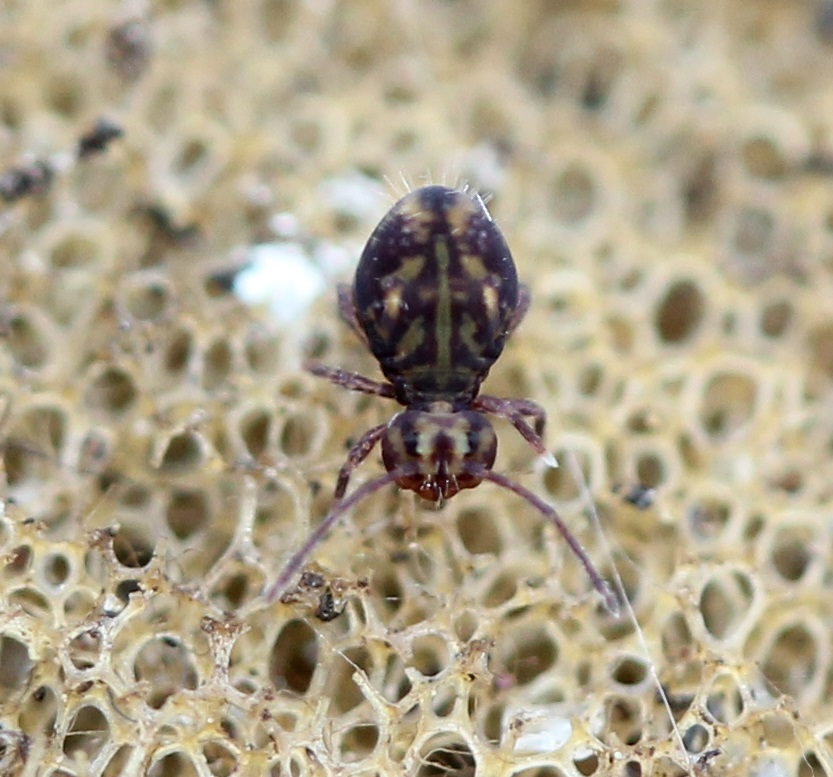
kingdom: Animalia
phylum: Arthropoda
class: Collembola
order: Symphypleona
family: Dicyrtomidae
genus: Dicyrtomina
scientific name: Dicyrtomina minuta
